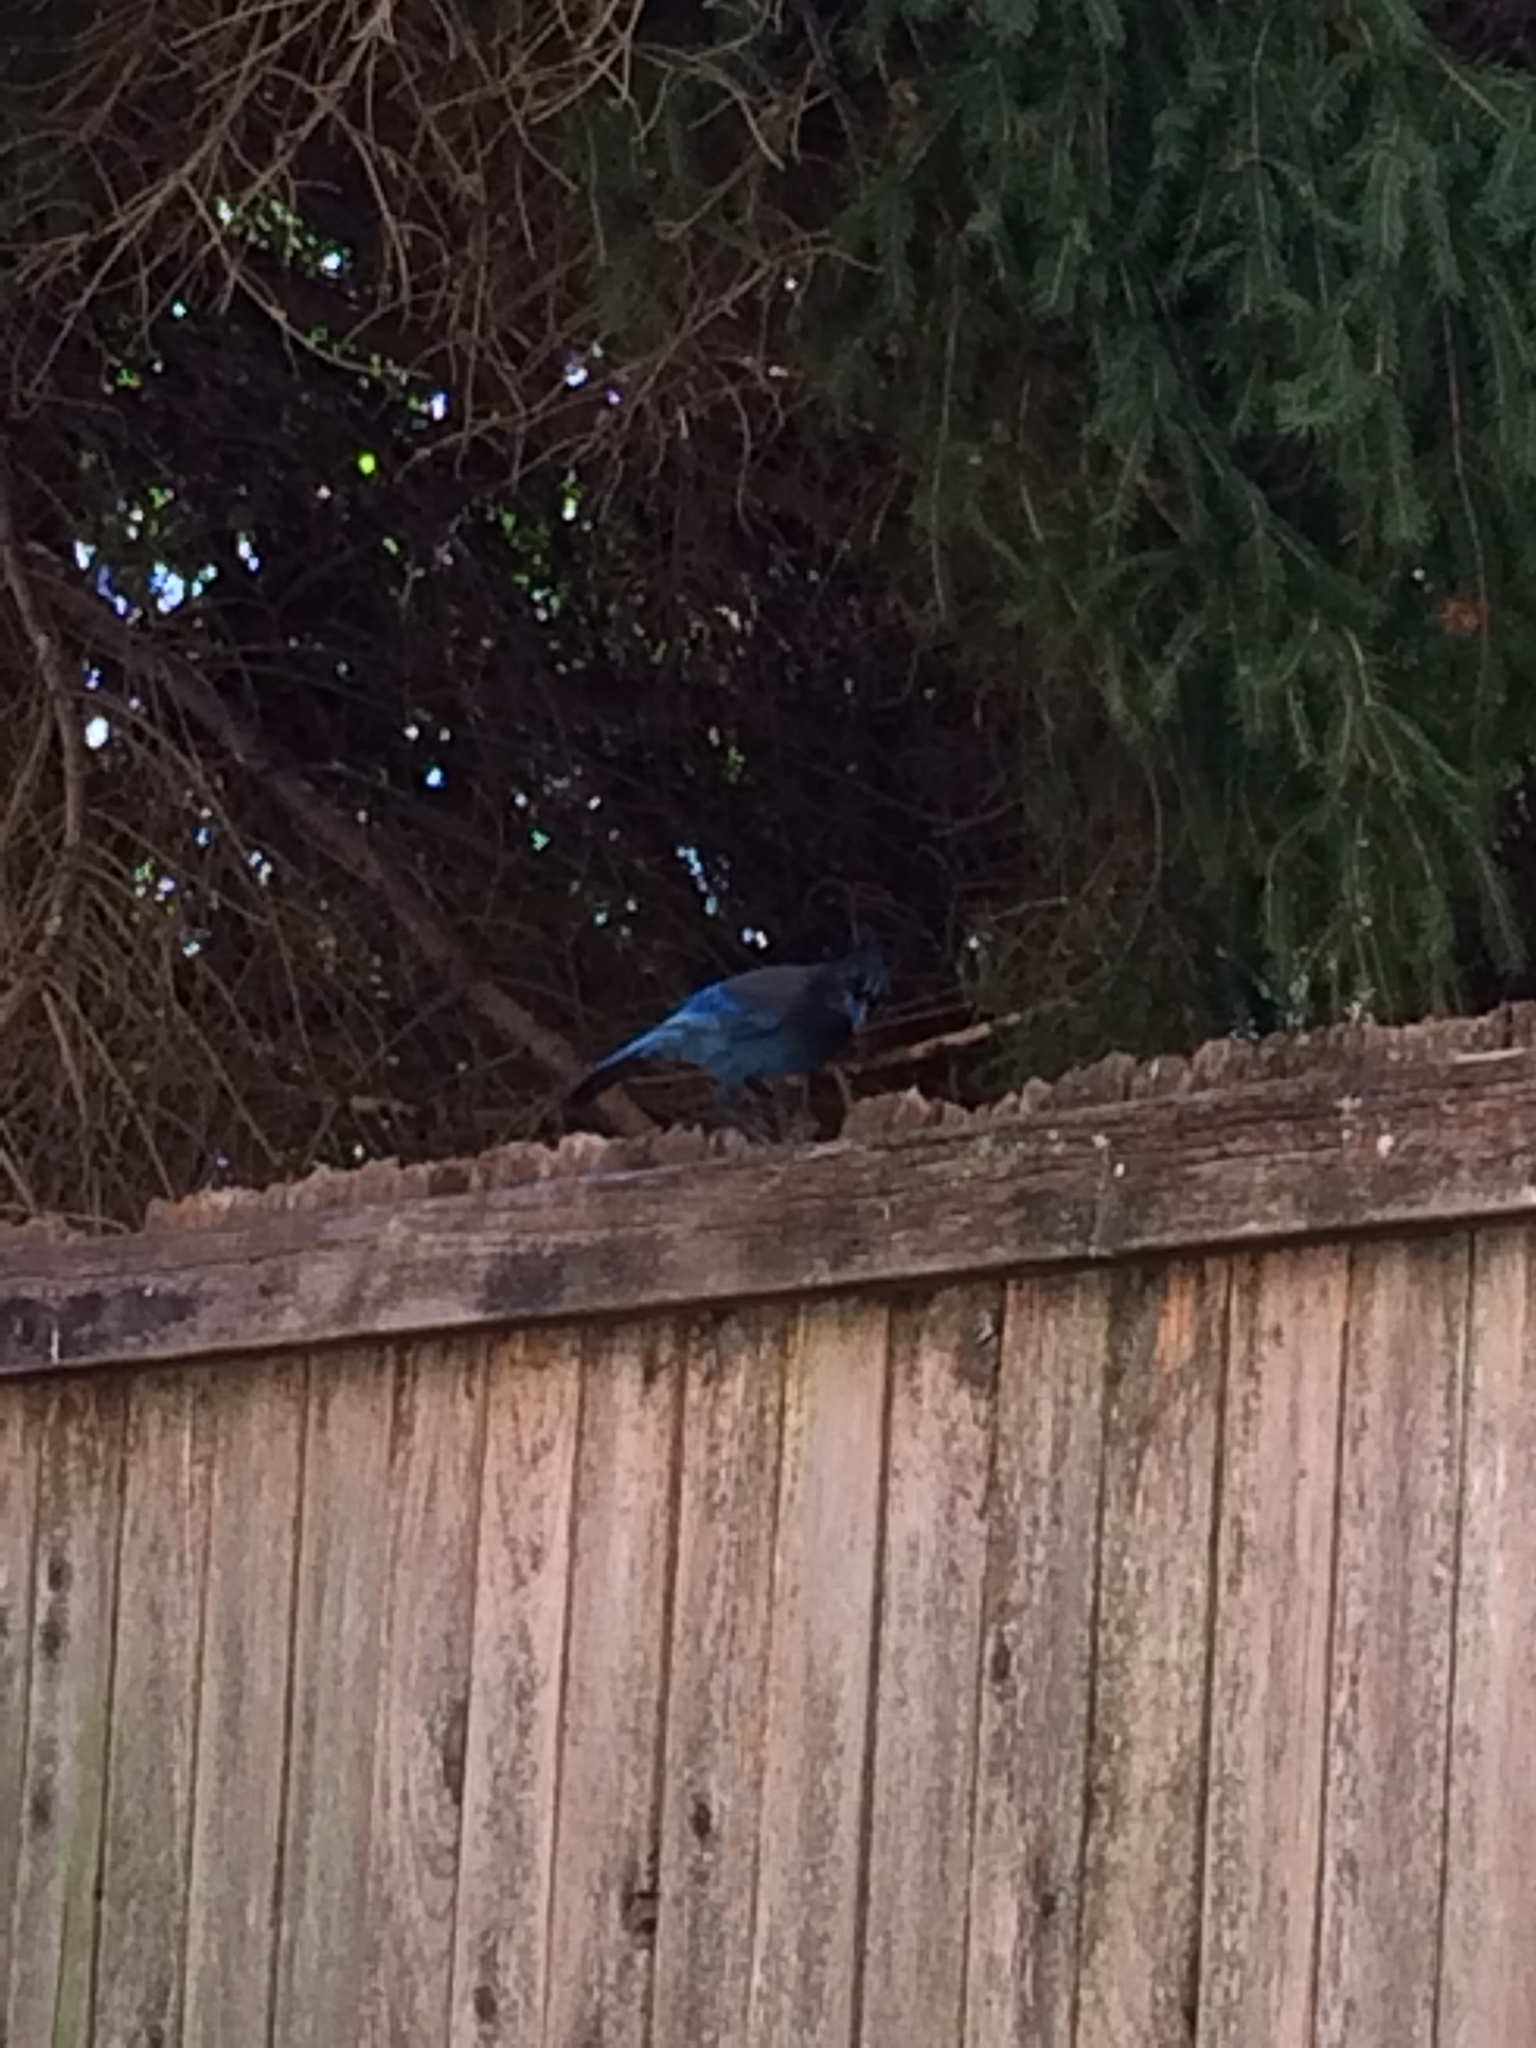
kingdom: Animalia
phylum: Chordata
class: Aves
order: Passeriformes
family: Corvidae
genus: Cyanocitta
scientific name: Cyanocitta stelleri
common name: Steller's jay
